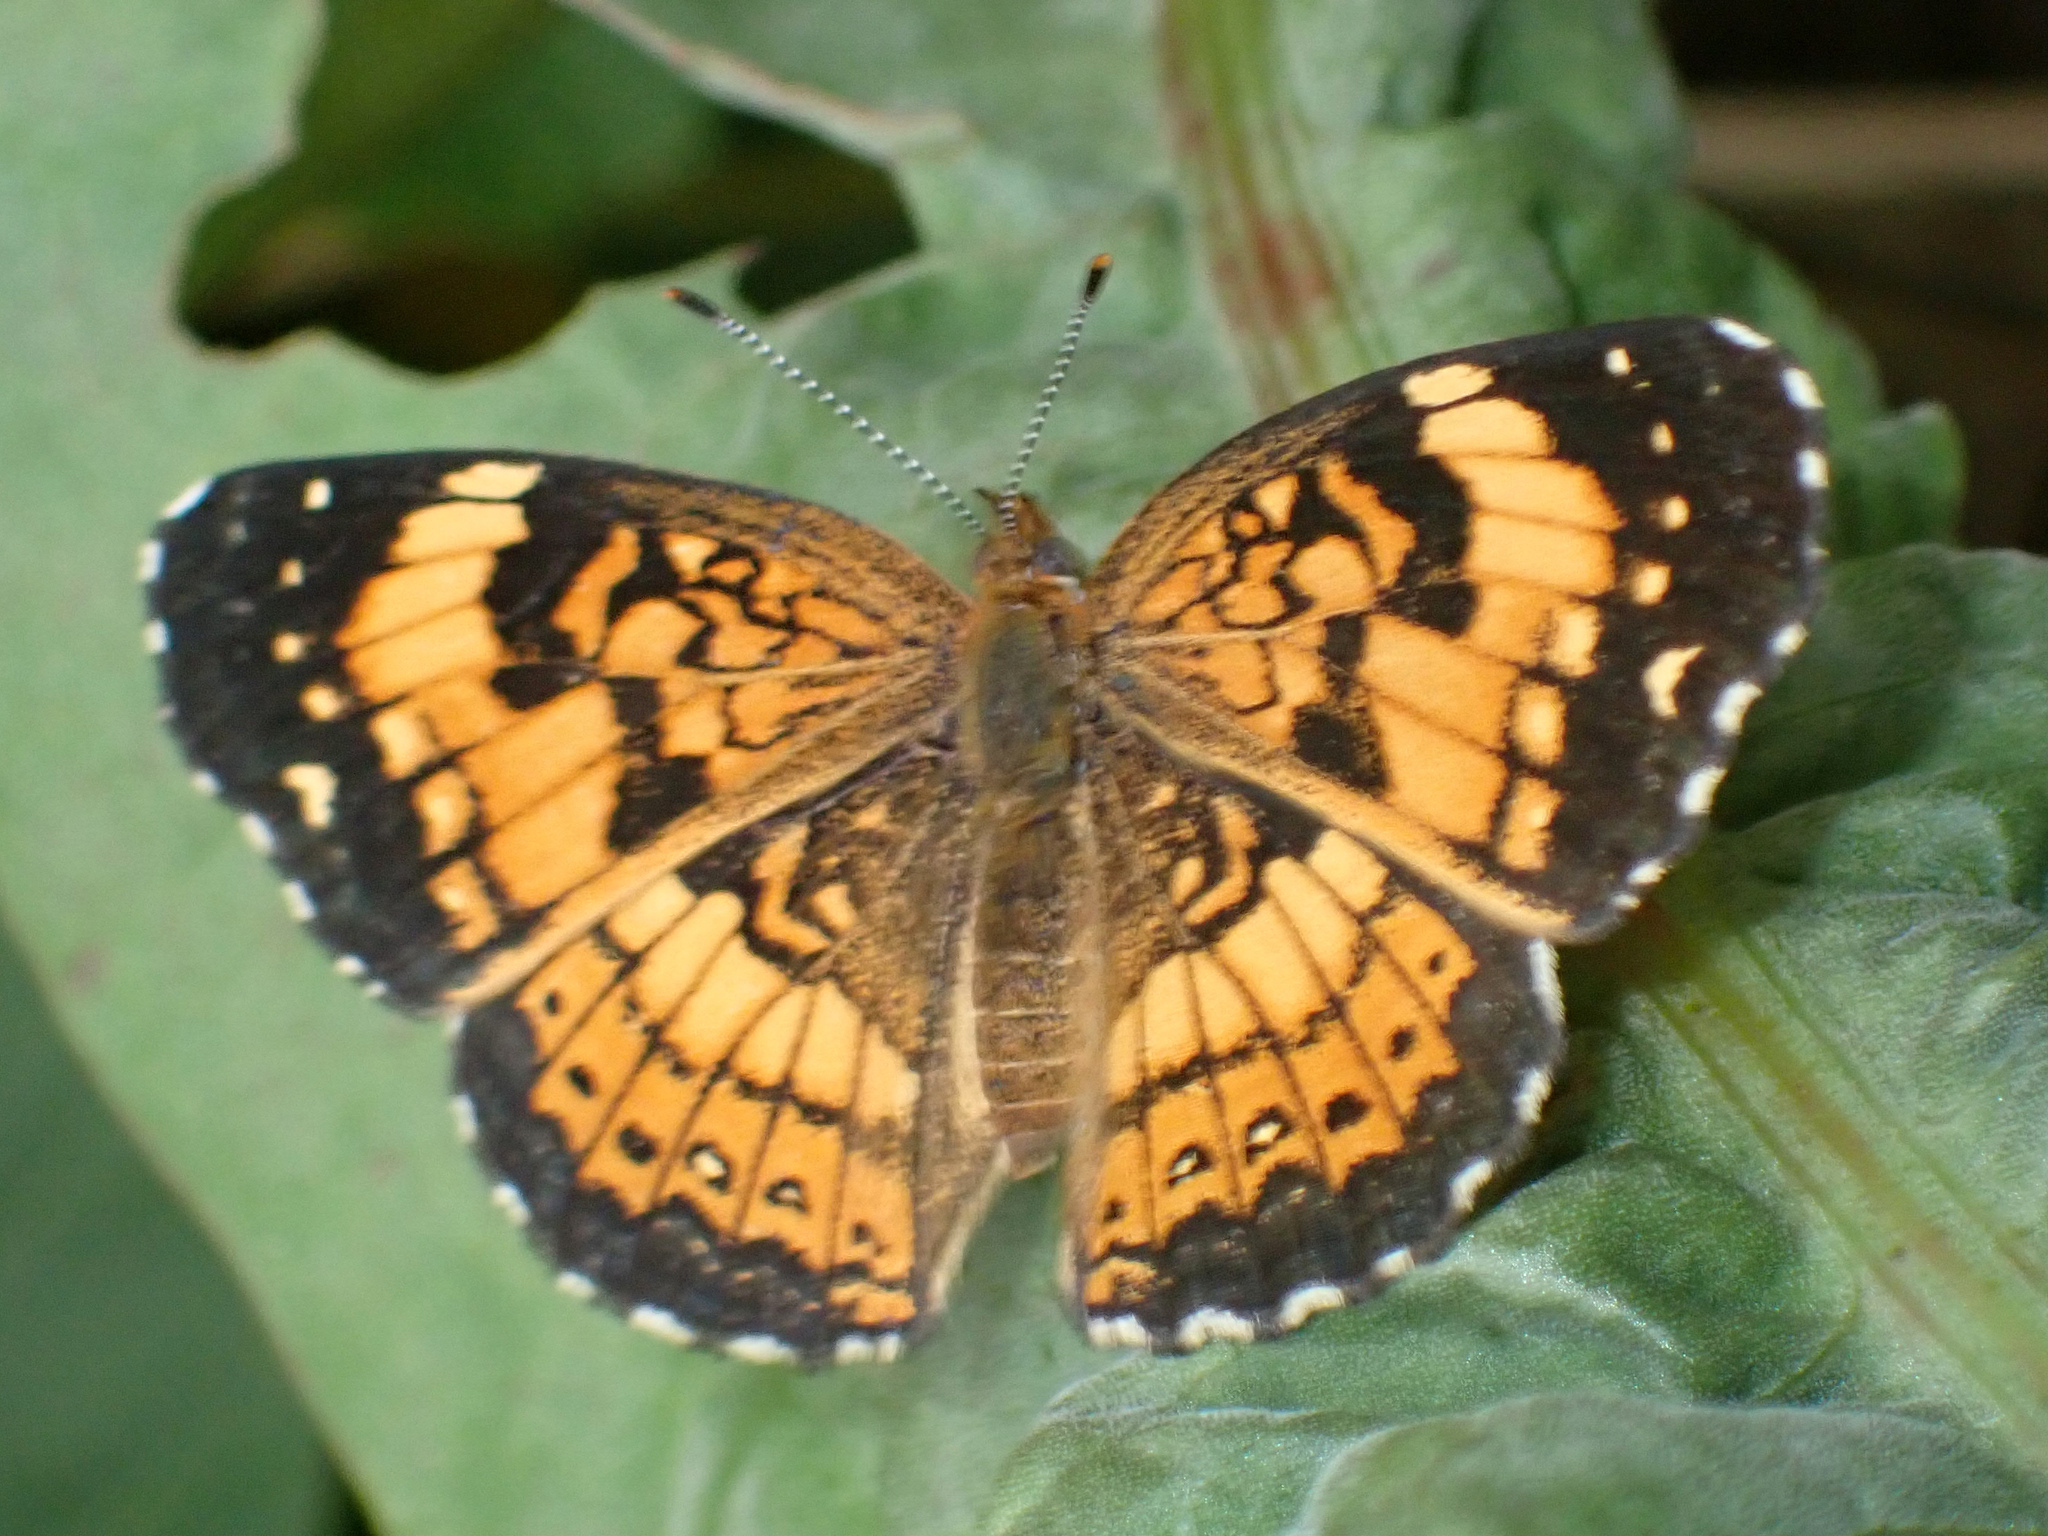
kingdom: Animalia
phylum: Arthropoda
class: Insecta
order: Lepidoptera
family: Nymphalidae
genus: Chlosyne
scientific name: Chlosyne nycteis
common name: Silvery checkerspot
